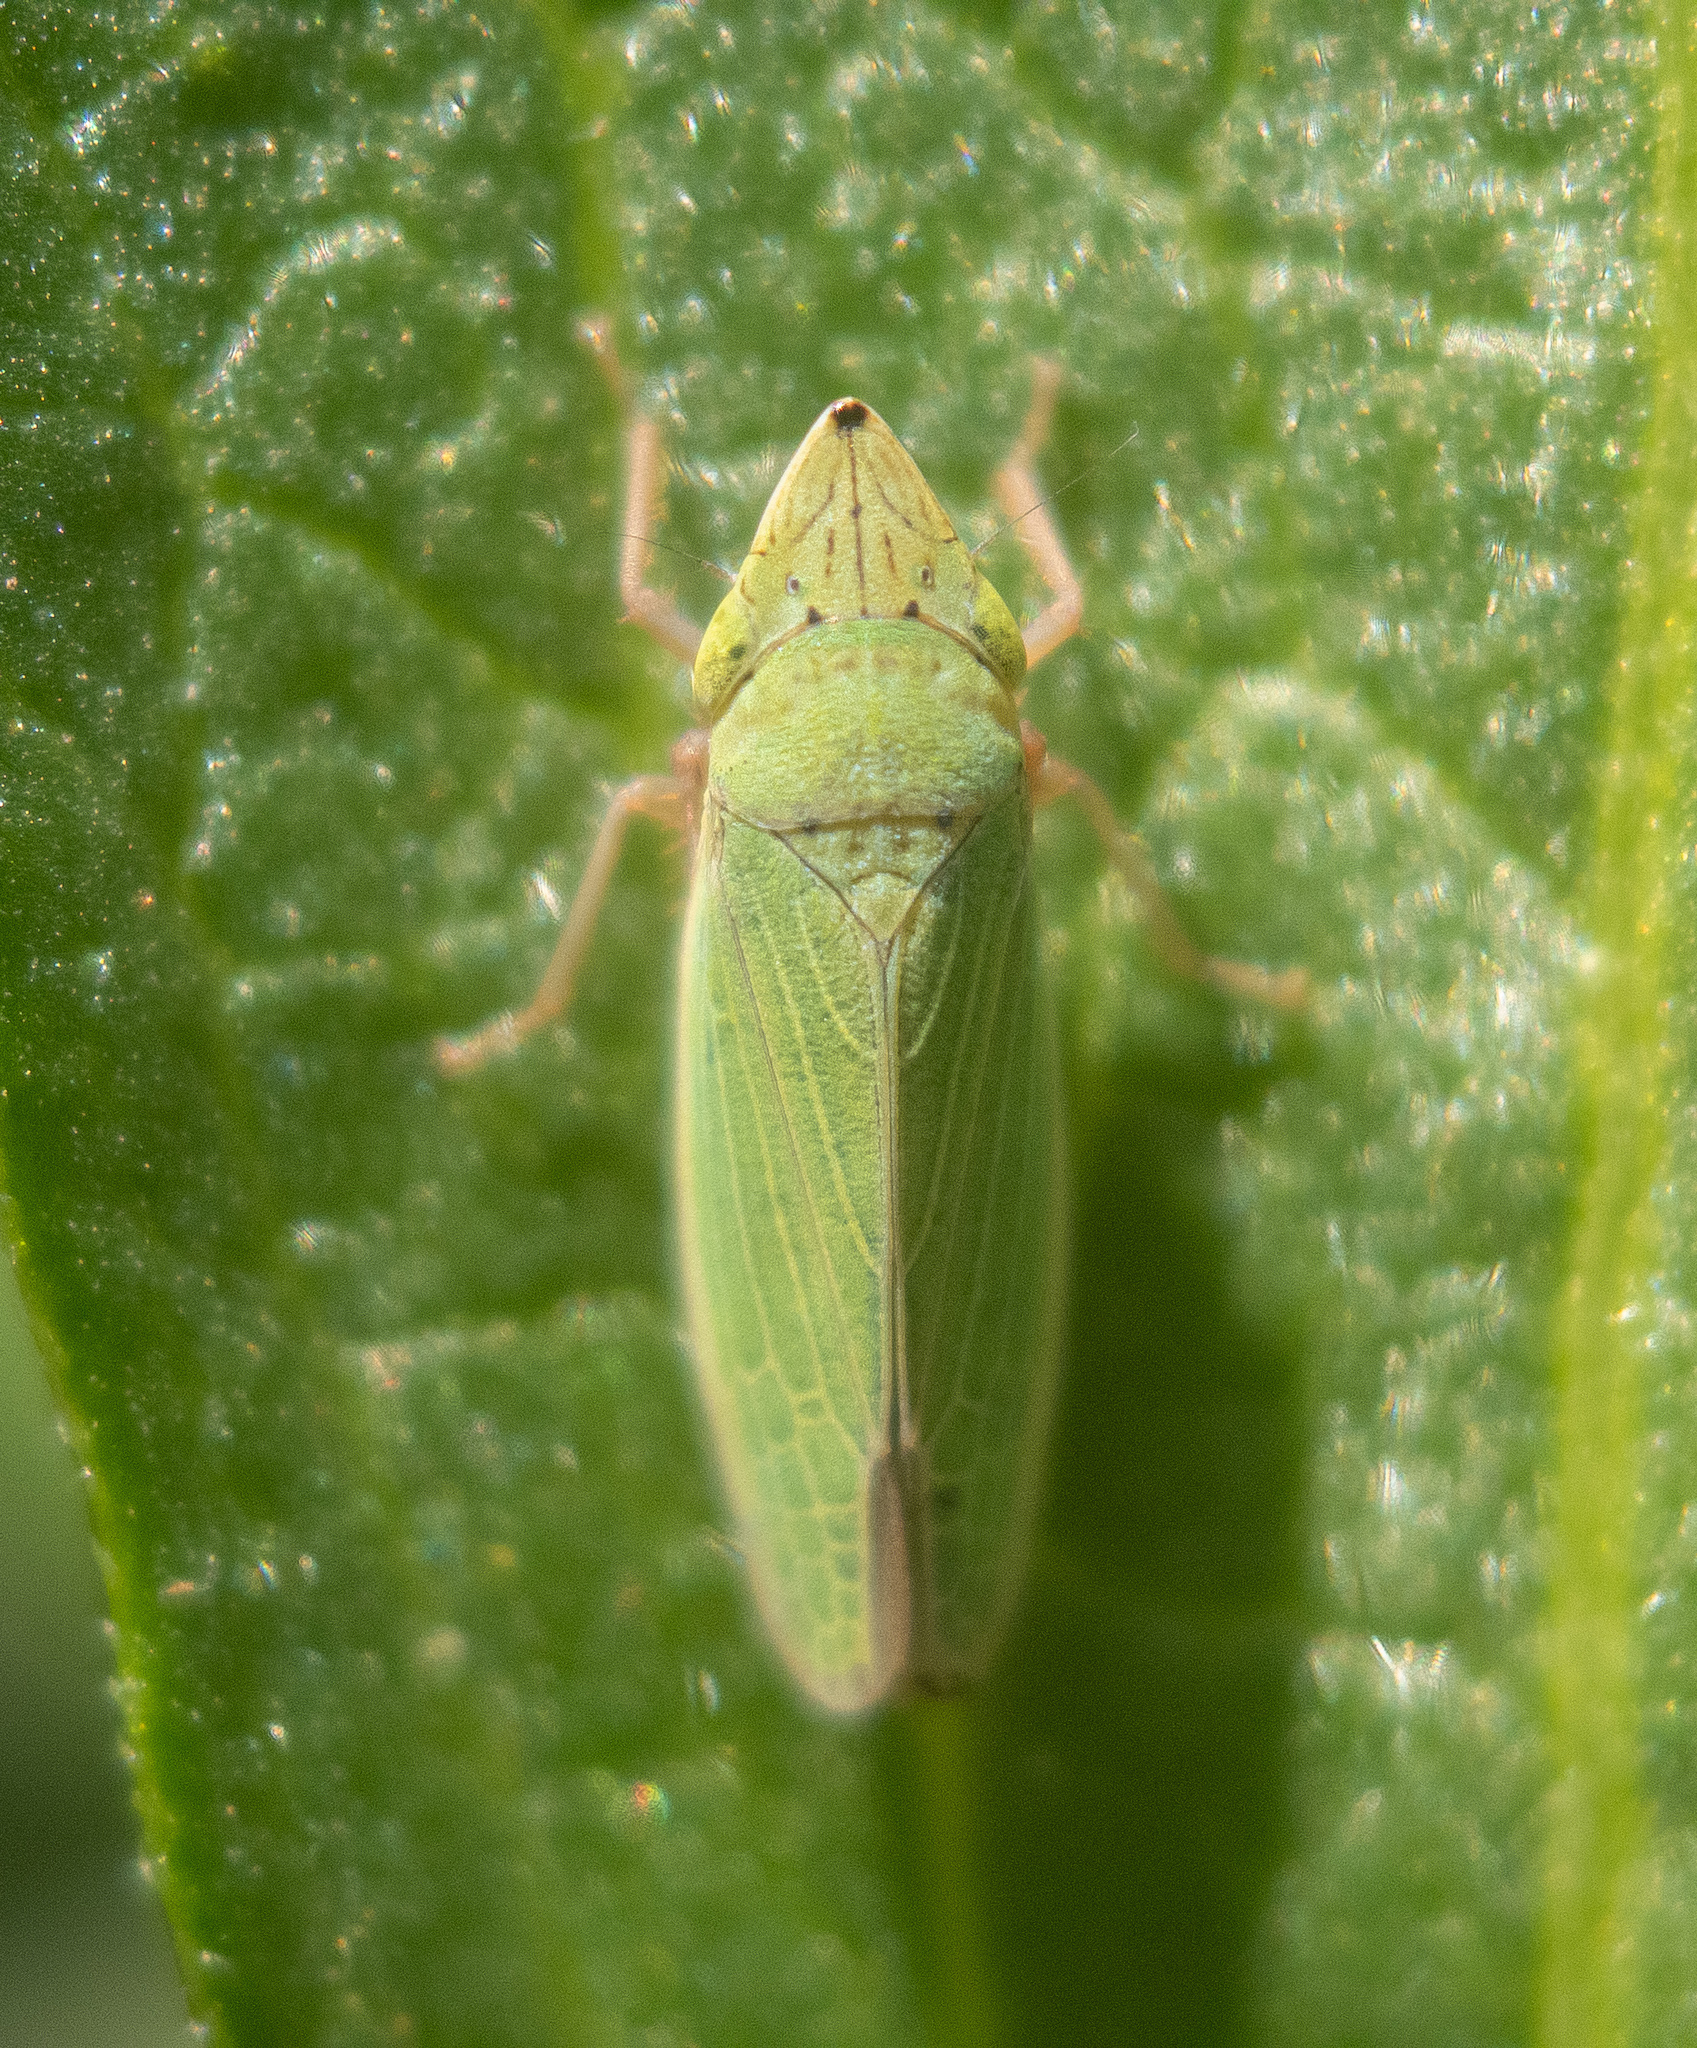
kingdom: Animalia
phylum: Arthropoda
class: Insecta
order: Hemiptera
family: Cicadellidae
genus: Draeculacephala
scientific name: Draeculacephala balli
